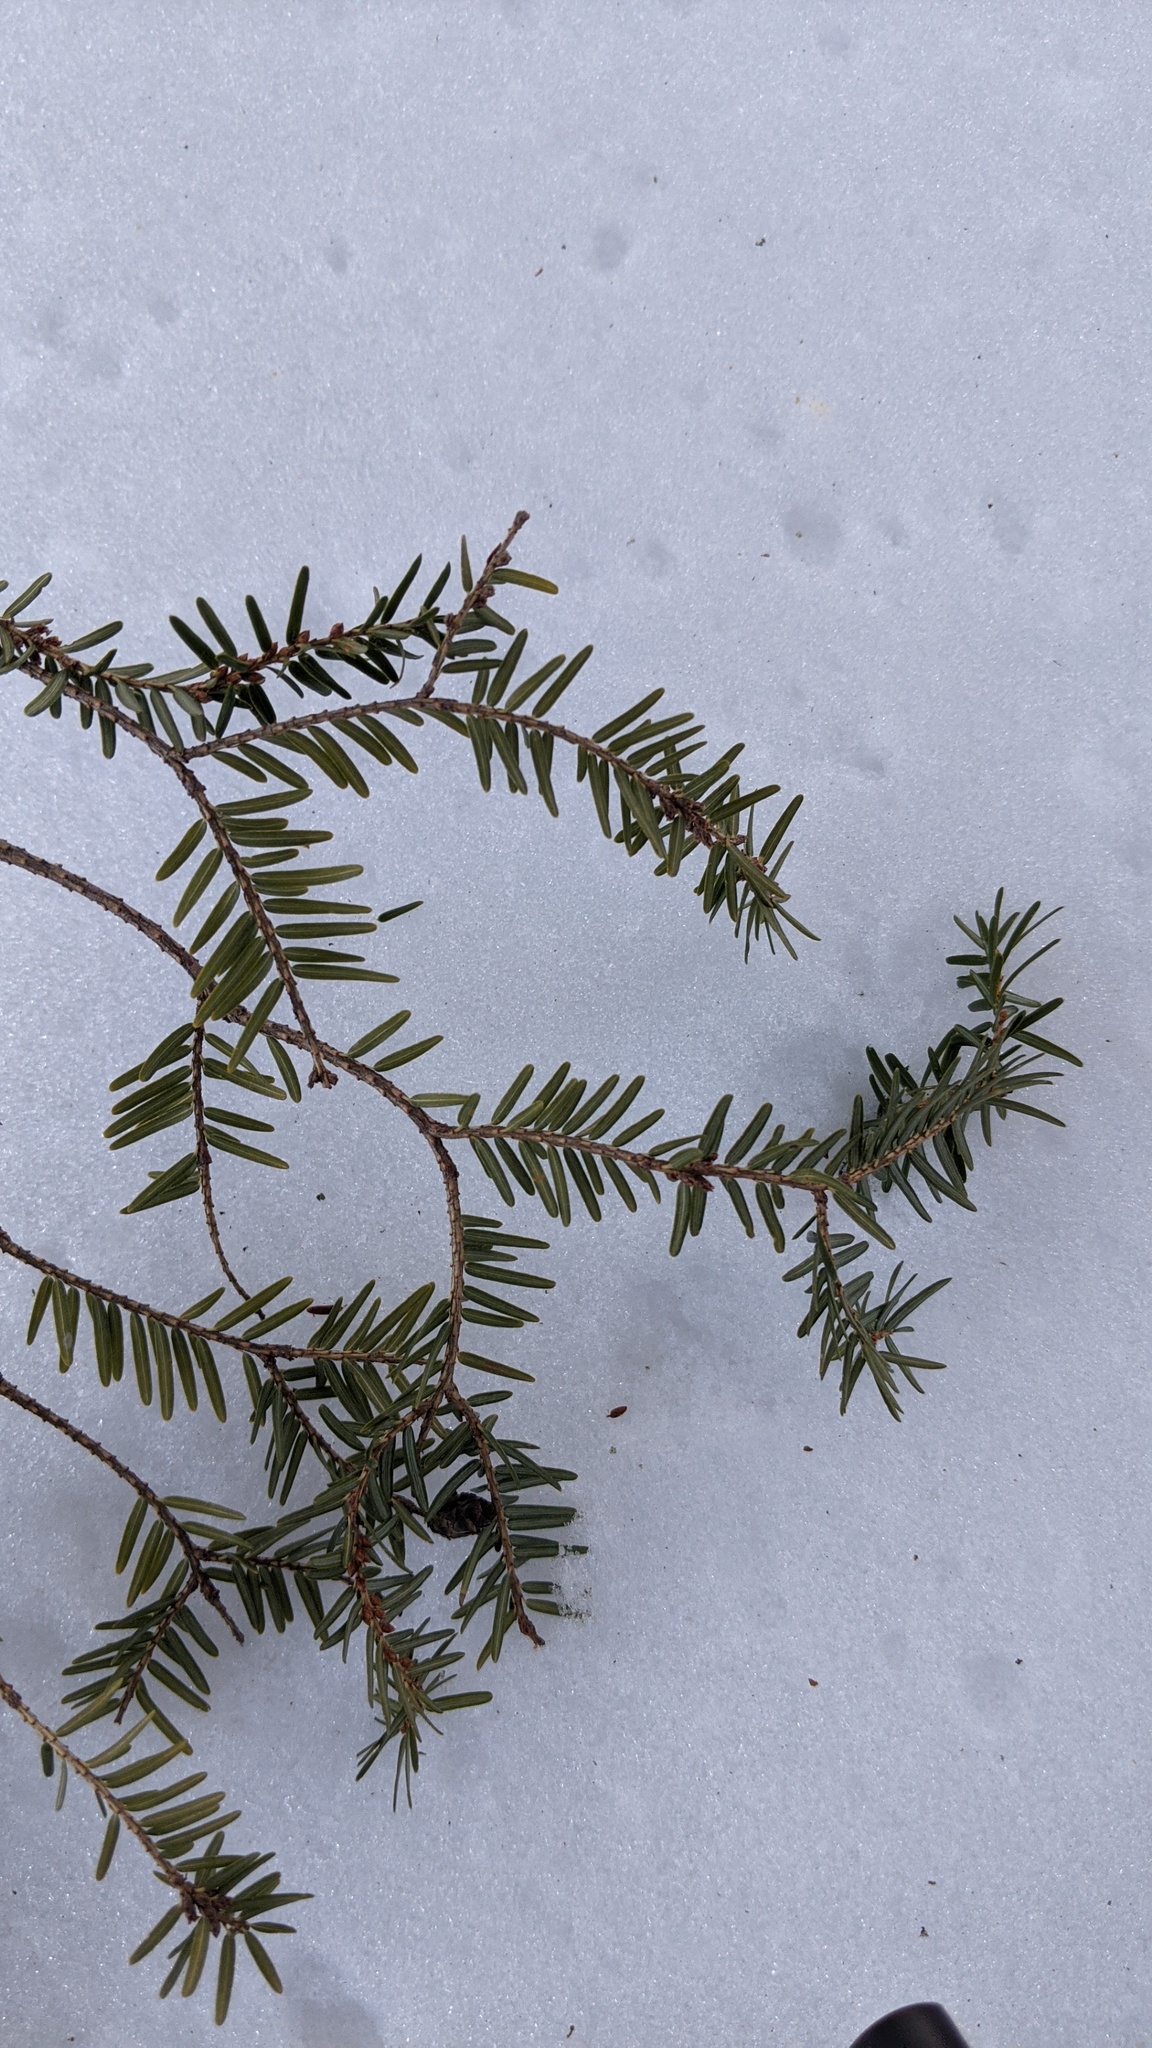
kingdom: Plantae
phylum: Tracheophyta
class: Pinopsida
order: Pinales
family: Pinaceae
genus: Tsuga
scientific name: Tsuga canadensis
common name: Eastern hemlock
